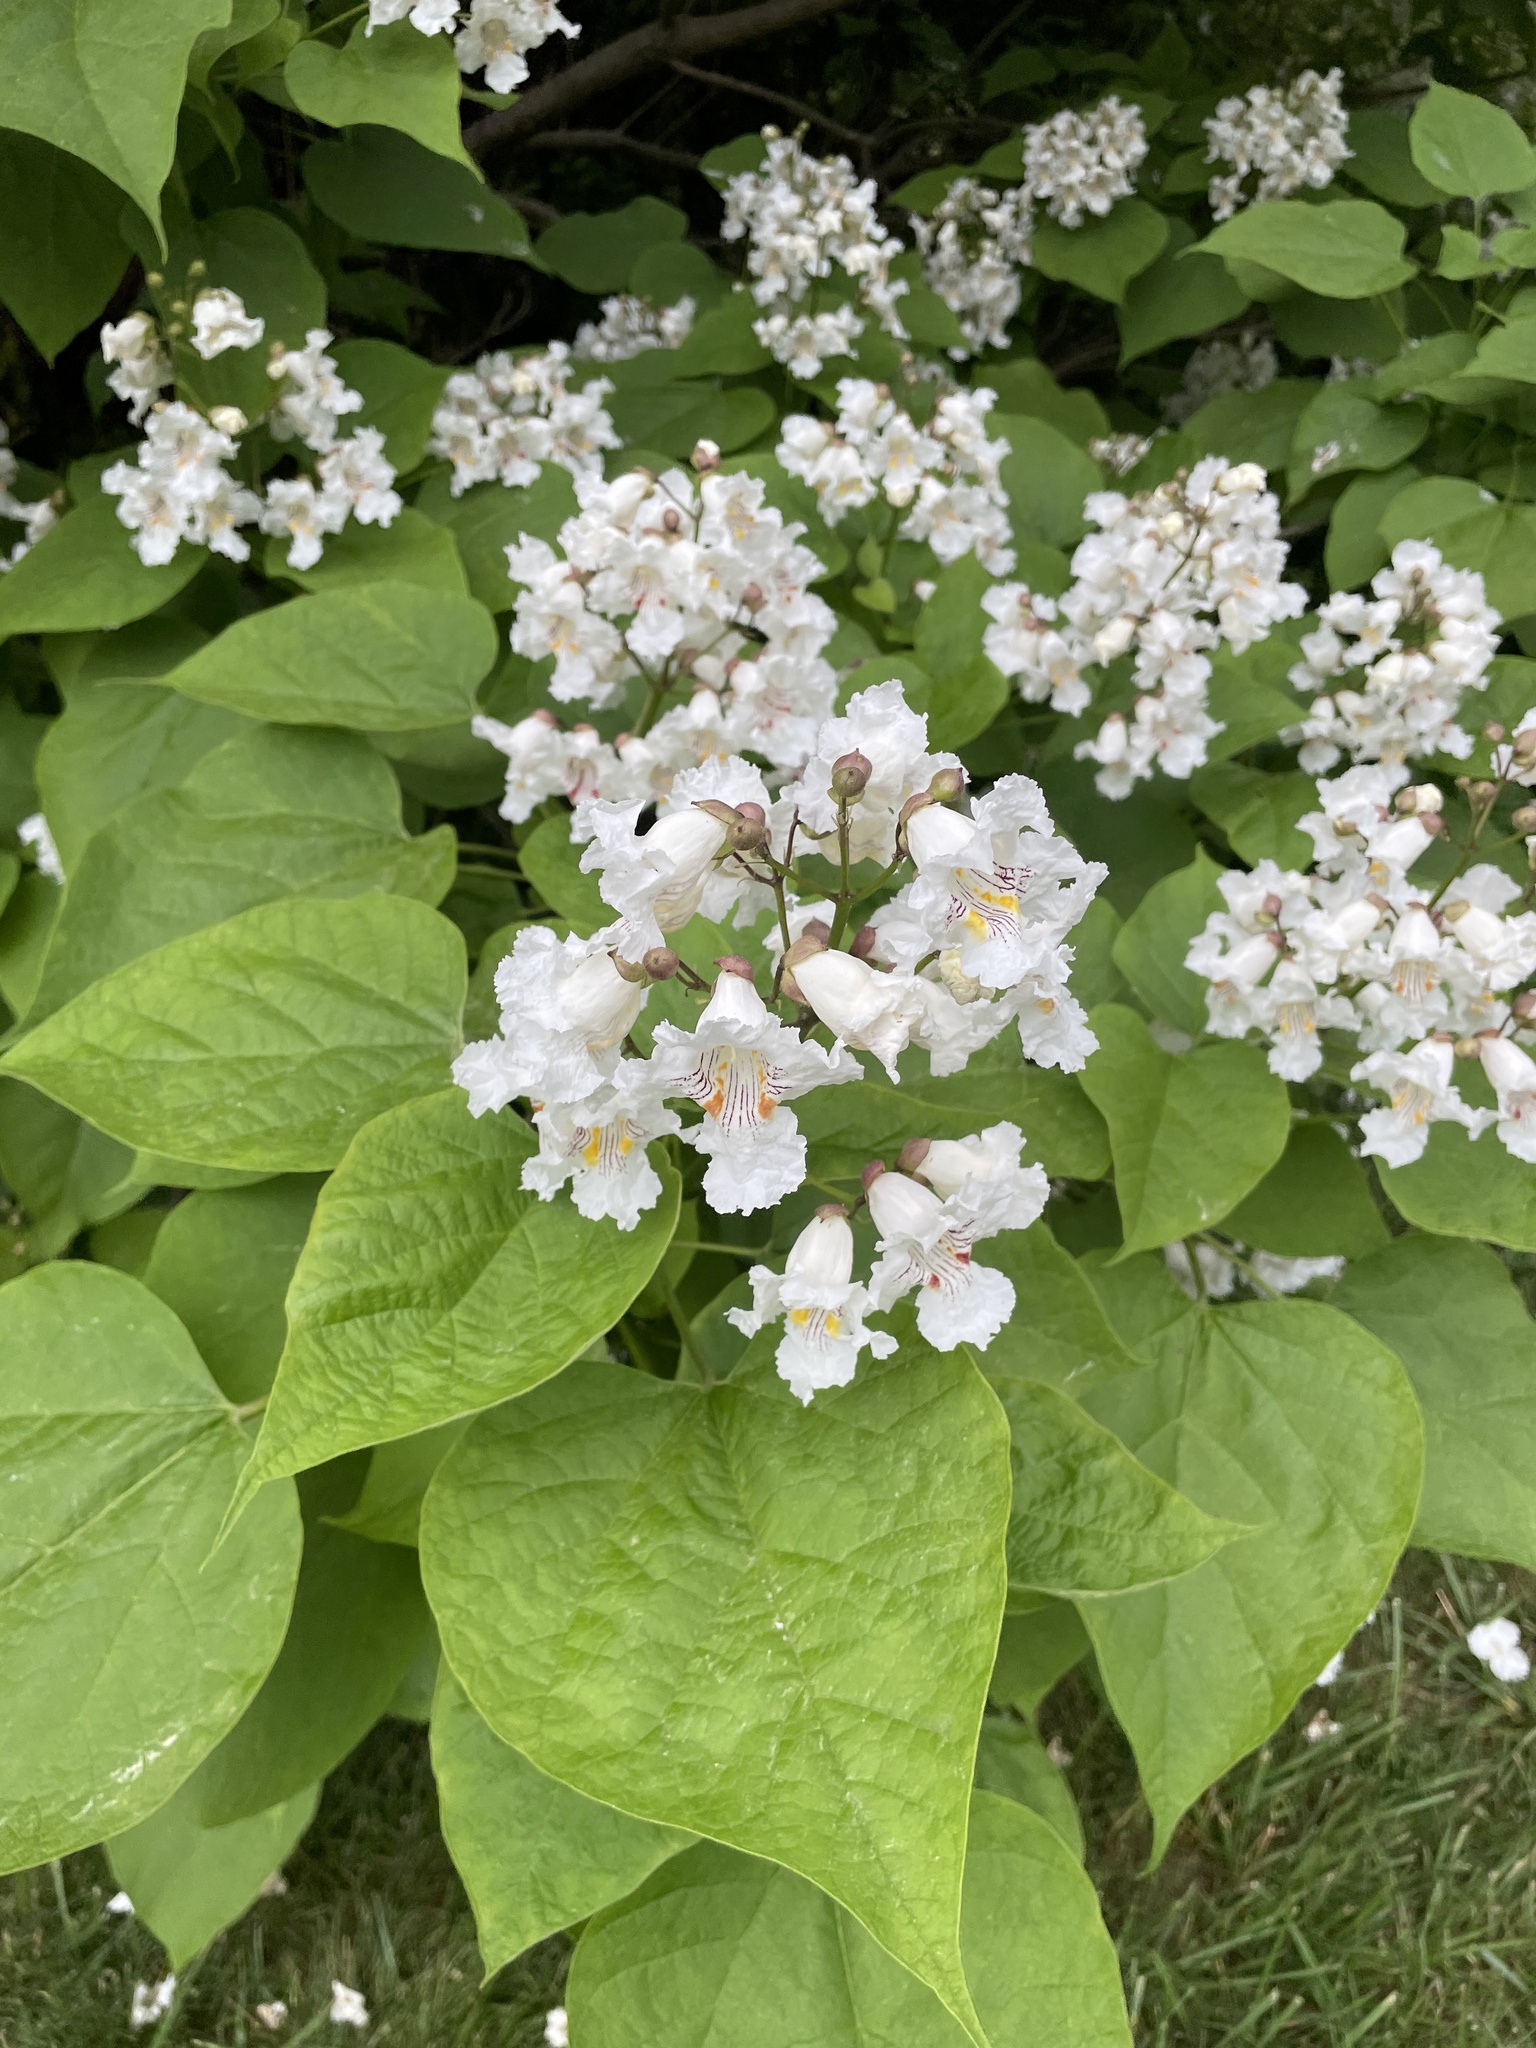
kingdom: Plantae
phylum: Tracheophyta
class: Magnoliopsida
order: Lamiales
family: Bignoniaceae
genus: Catalpa
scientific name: Catalpa speciosa
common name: Northern catalpa
